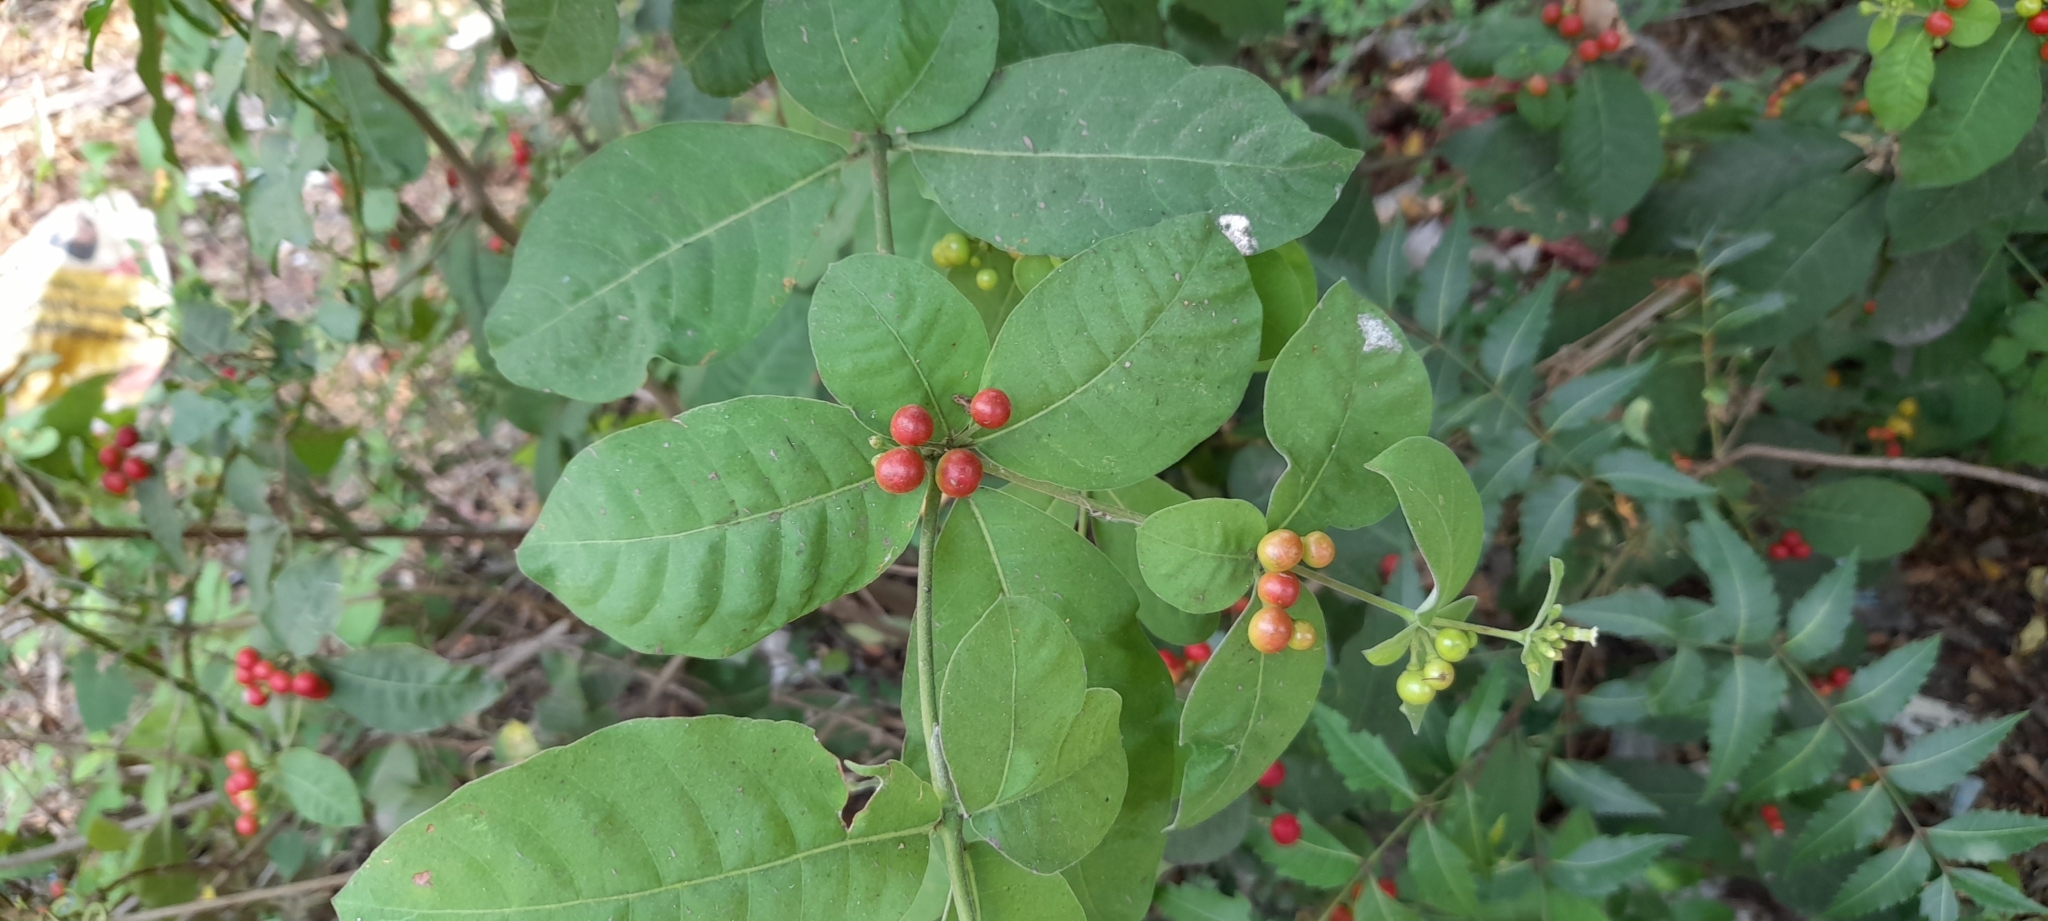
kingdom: Plantae
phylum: Tracheophyta
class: Magnoliopsida
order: Gentianales
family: Apocynaceae
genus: Rauvolfia
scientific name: Rauvolfia tetraphylla
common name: Four-leaf devil-pepper
